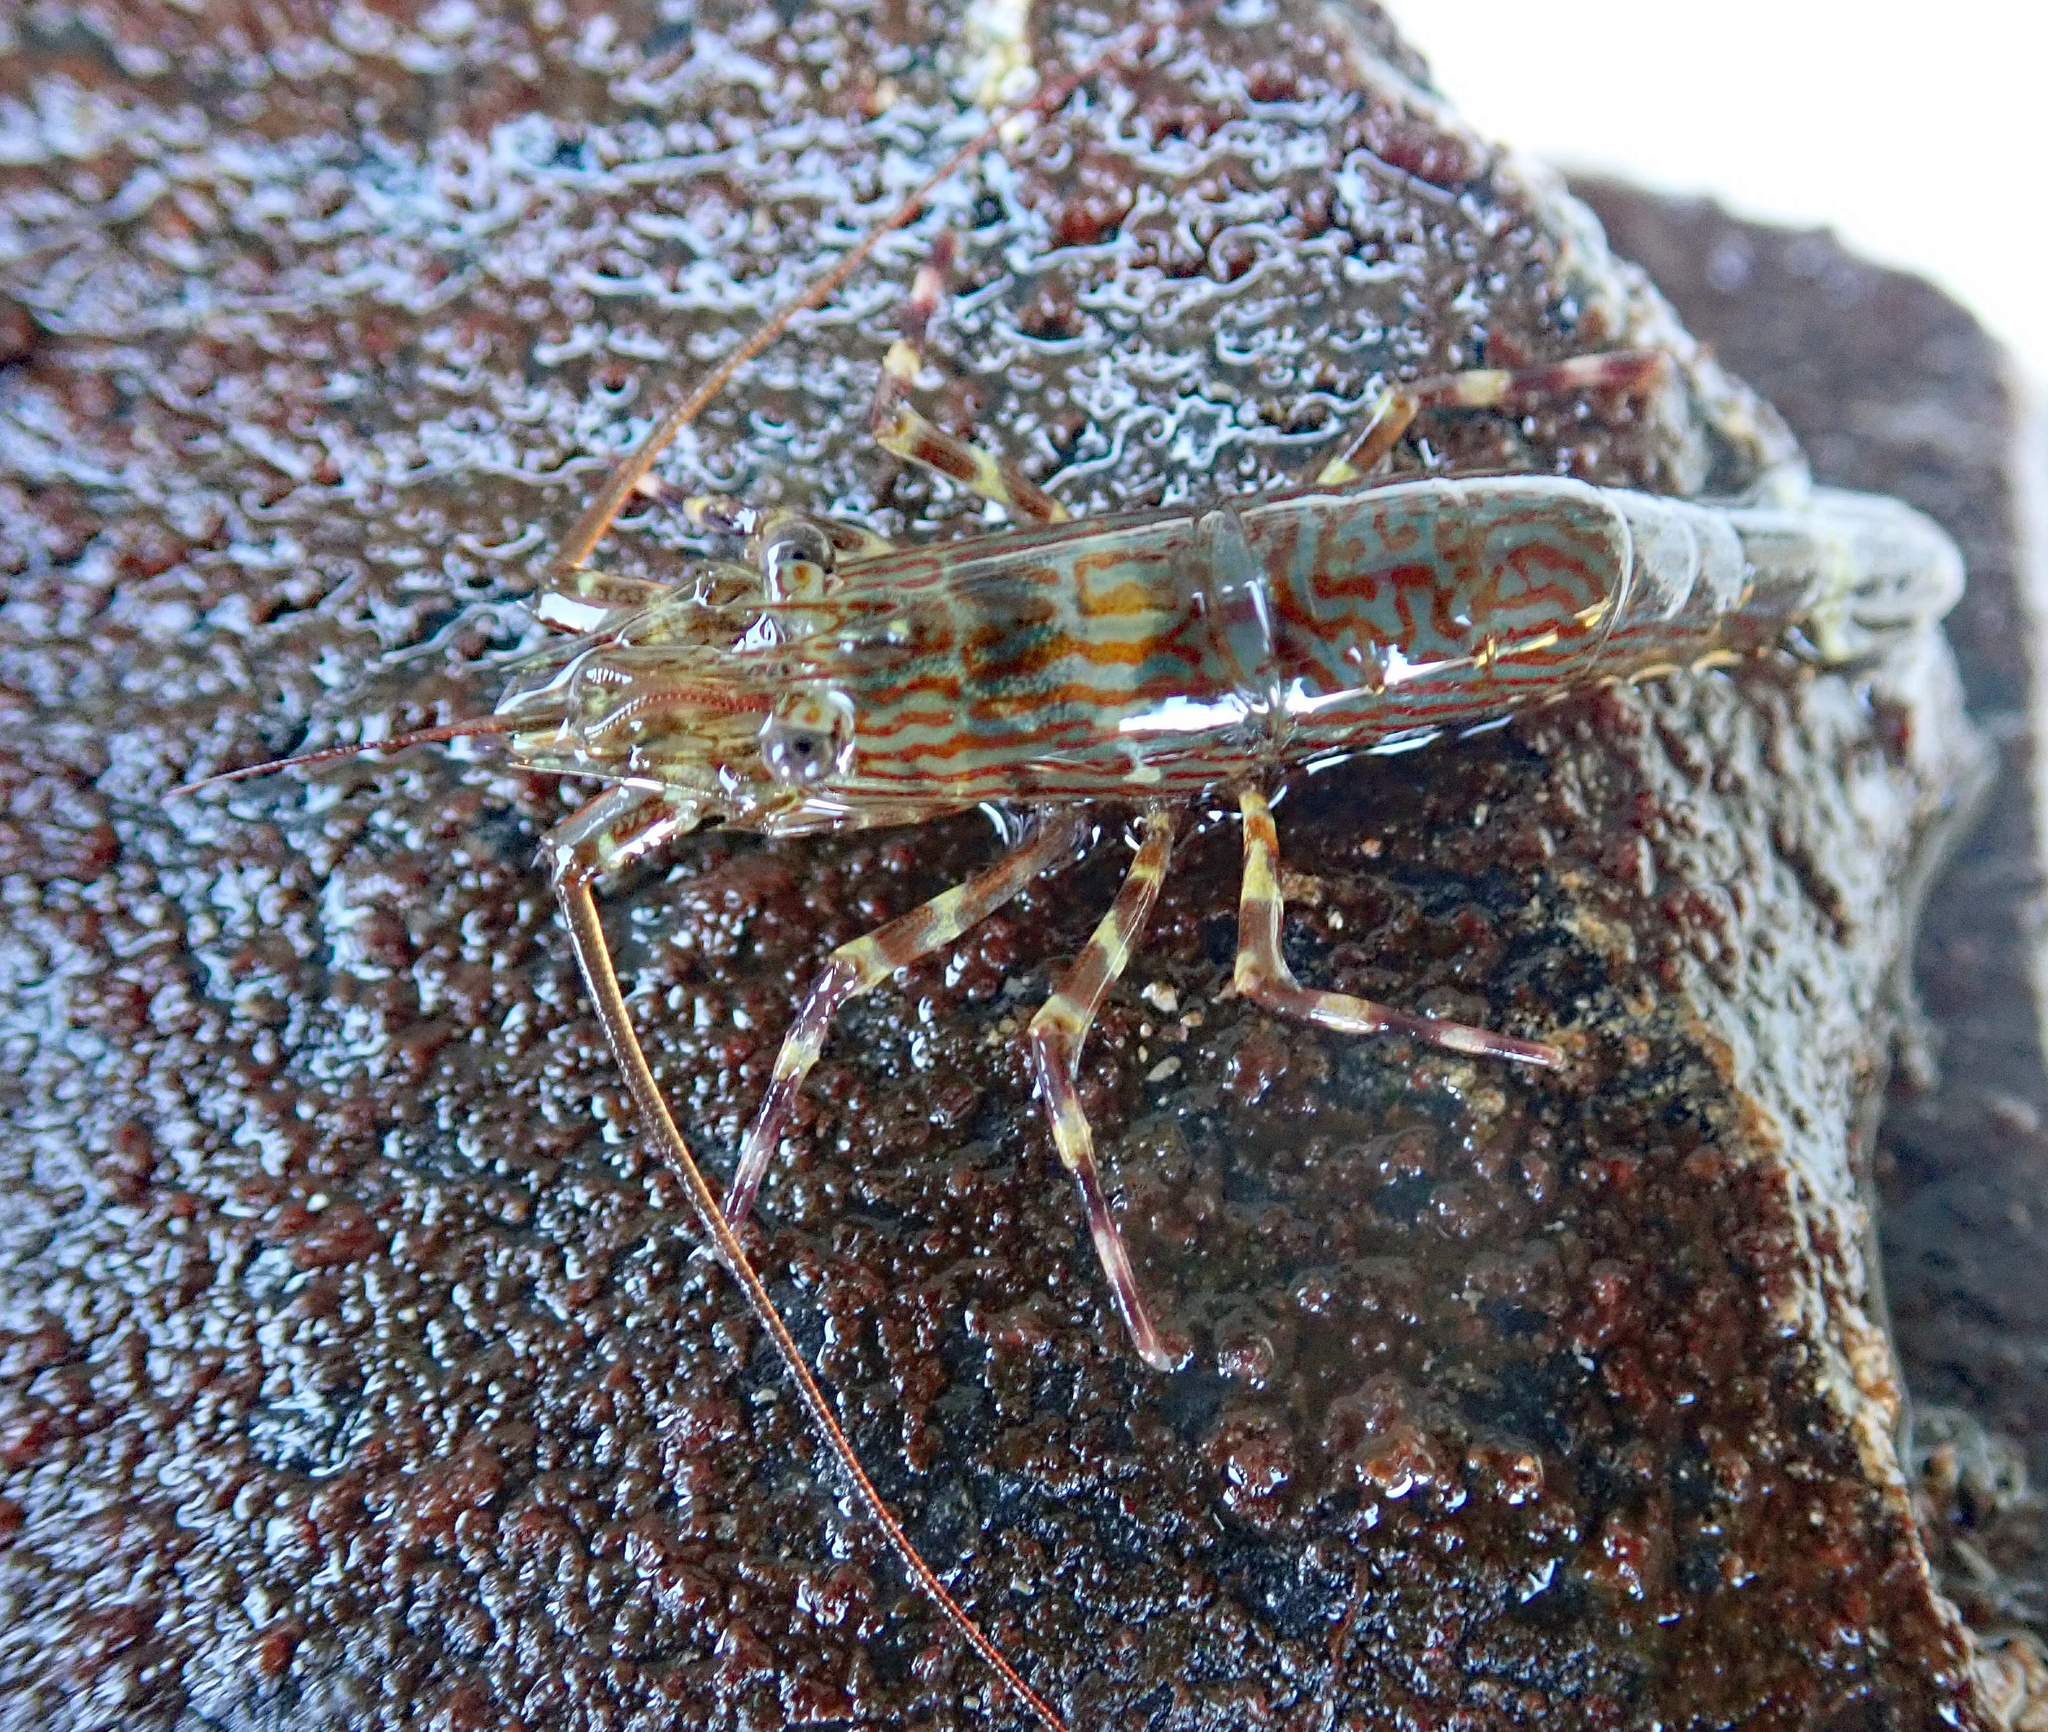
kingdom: Animalia
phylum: Arthropoda
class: Malacostraca
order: Decapoda
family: Hippolytidae
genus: Alope
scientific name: Alope spinifrons
